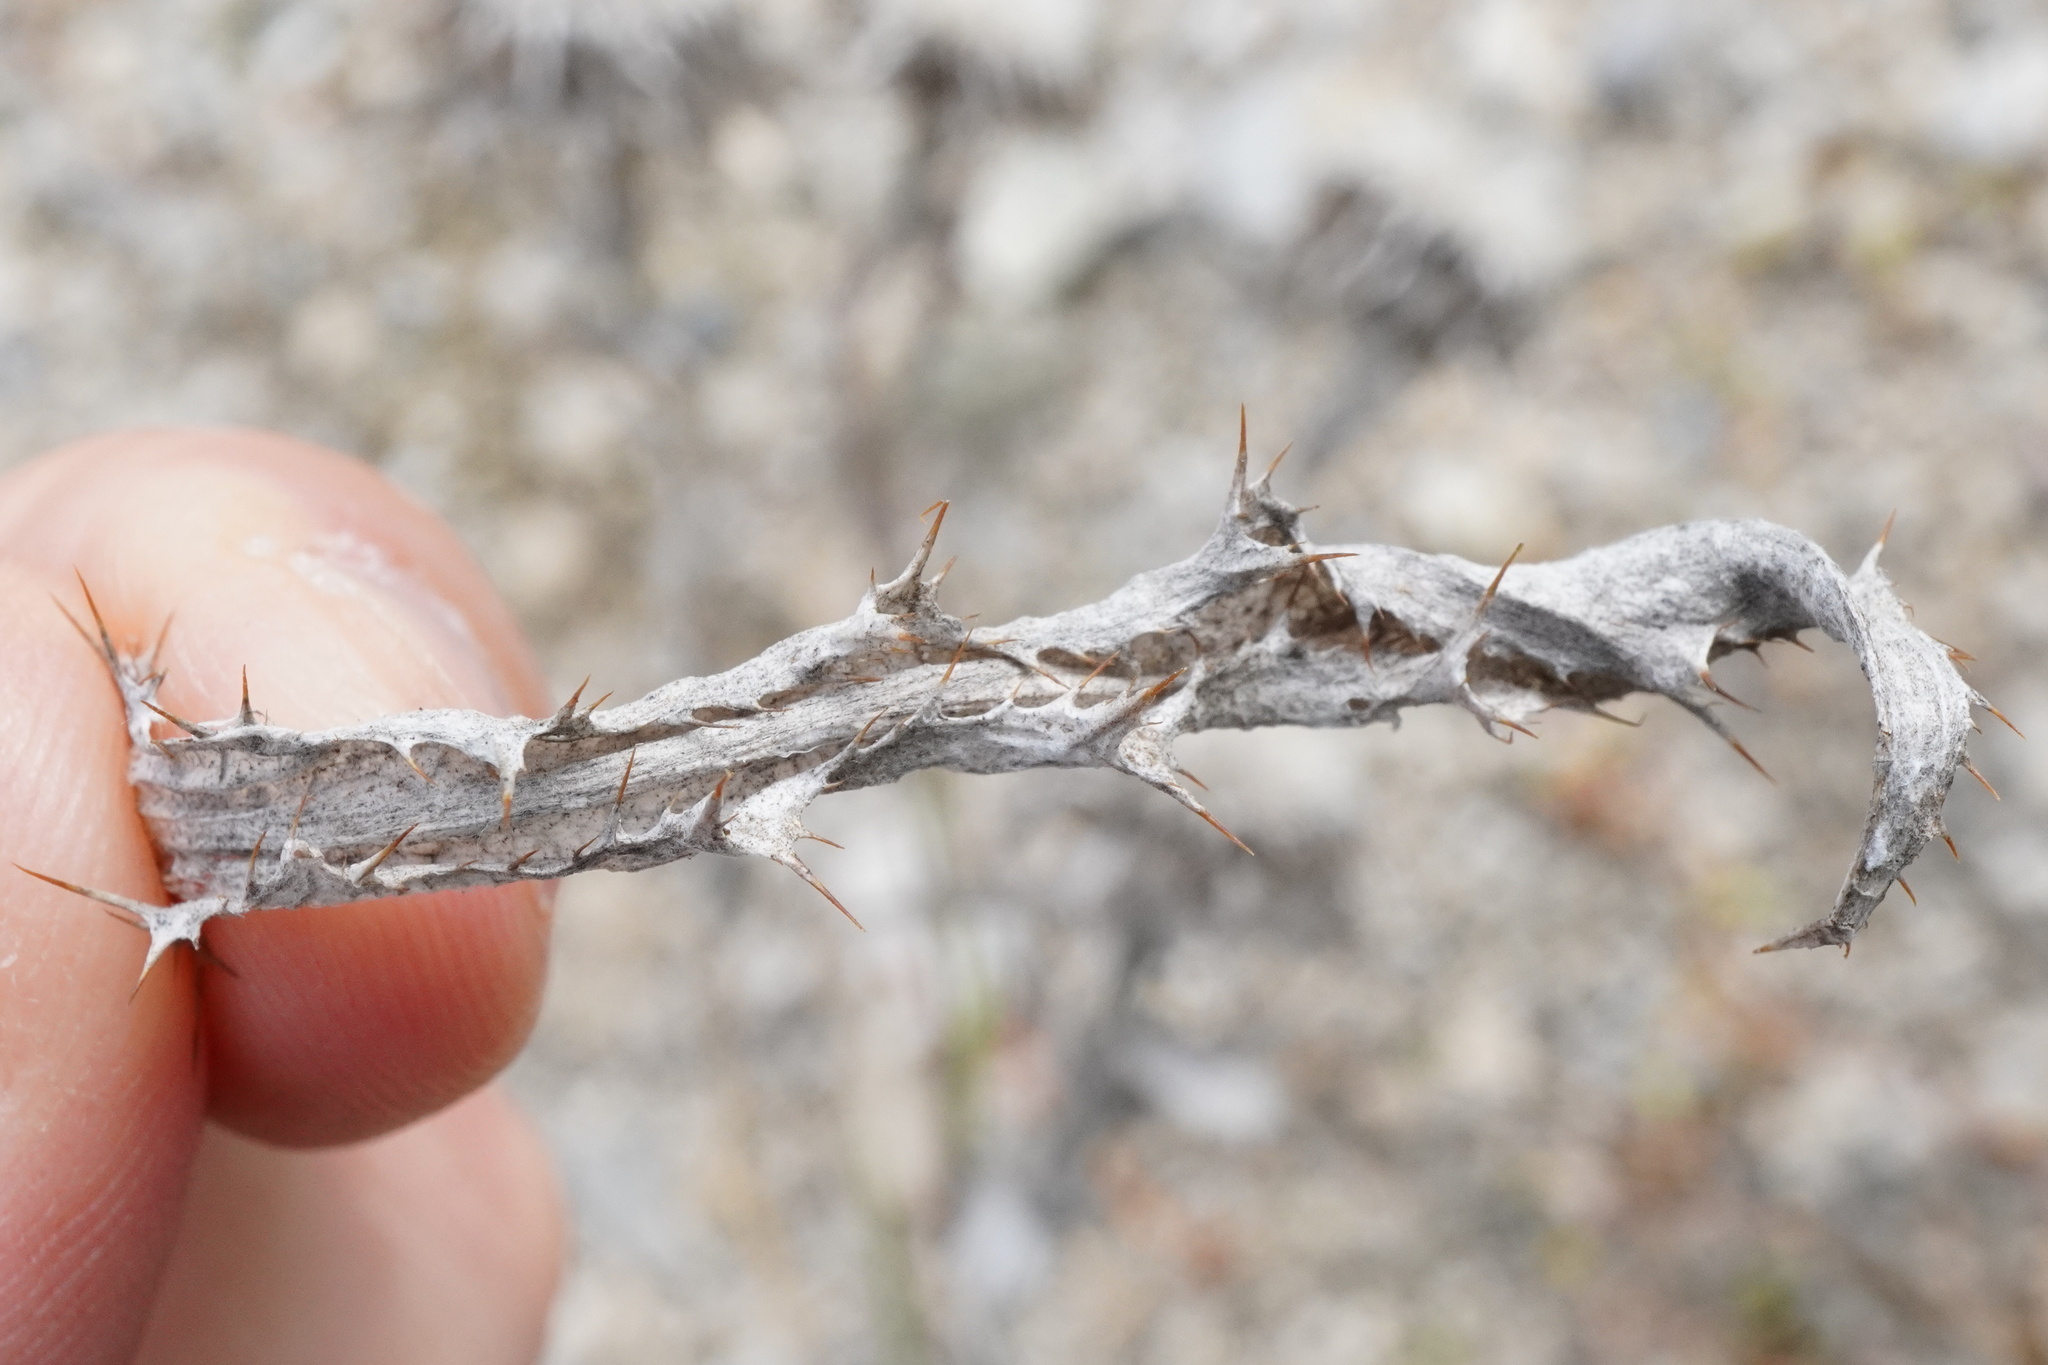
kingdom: Plantae
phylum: Tracheophyta
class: Magnoliopsida
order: Asterales
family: Asteraceae
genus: Carlina
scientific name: Carlina vulgaris
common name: Carline thistle
